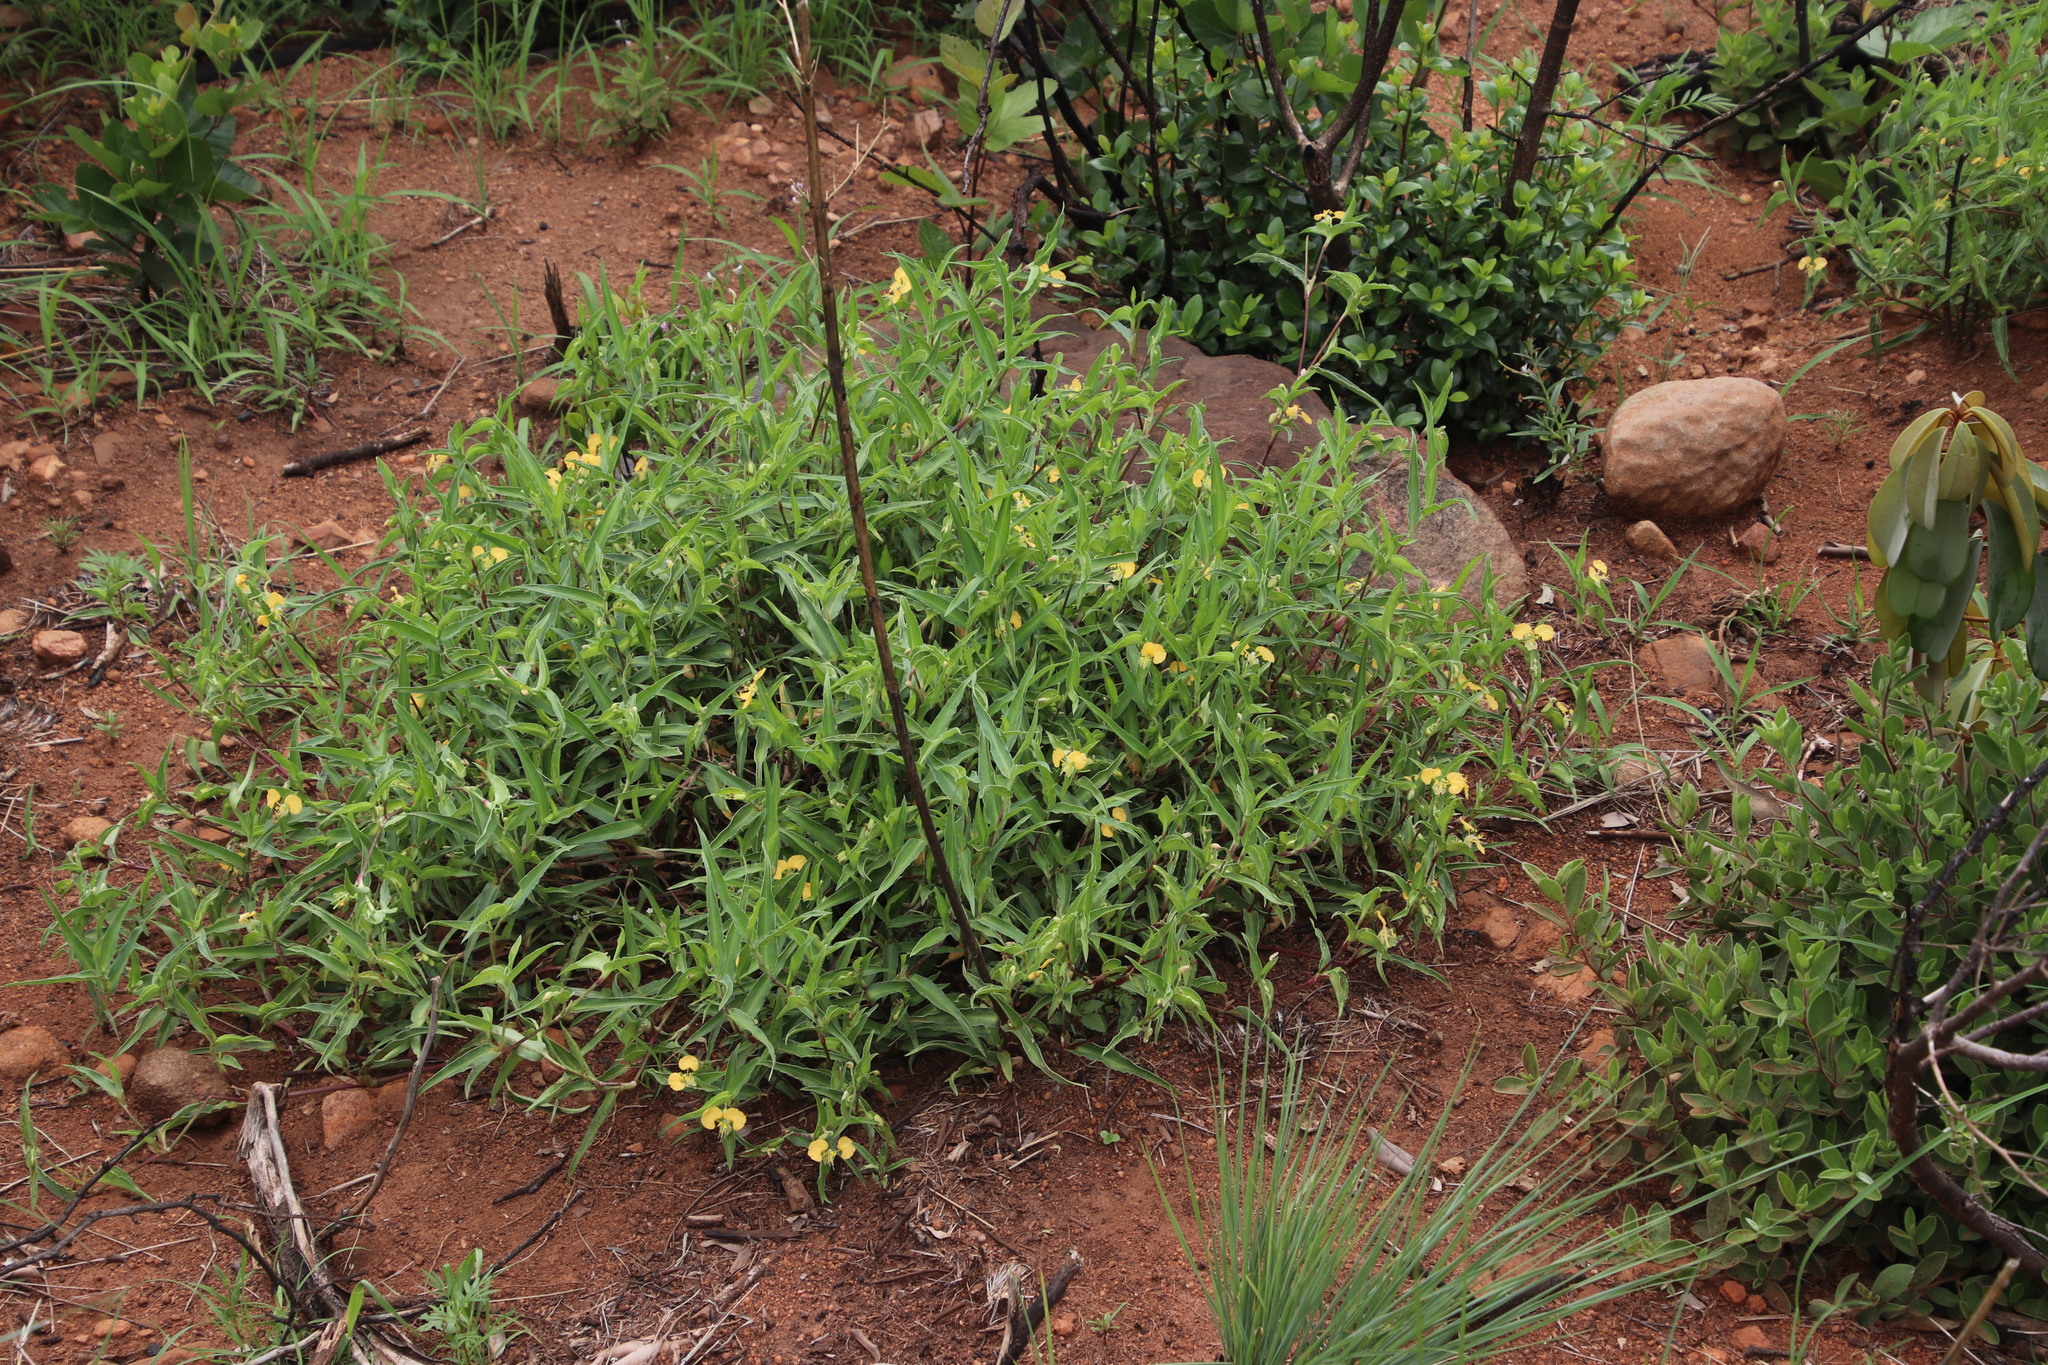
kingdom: Plantae
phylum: Tracheophyta
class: Liliopsida
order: Commelinales
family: Commelinaceae
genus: Commelina
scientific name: Commelina africana
